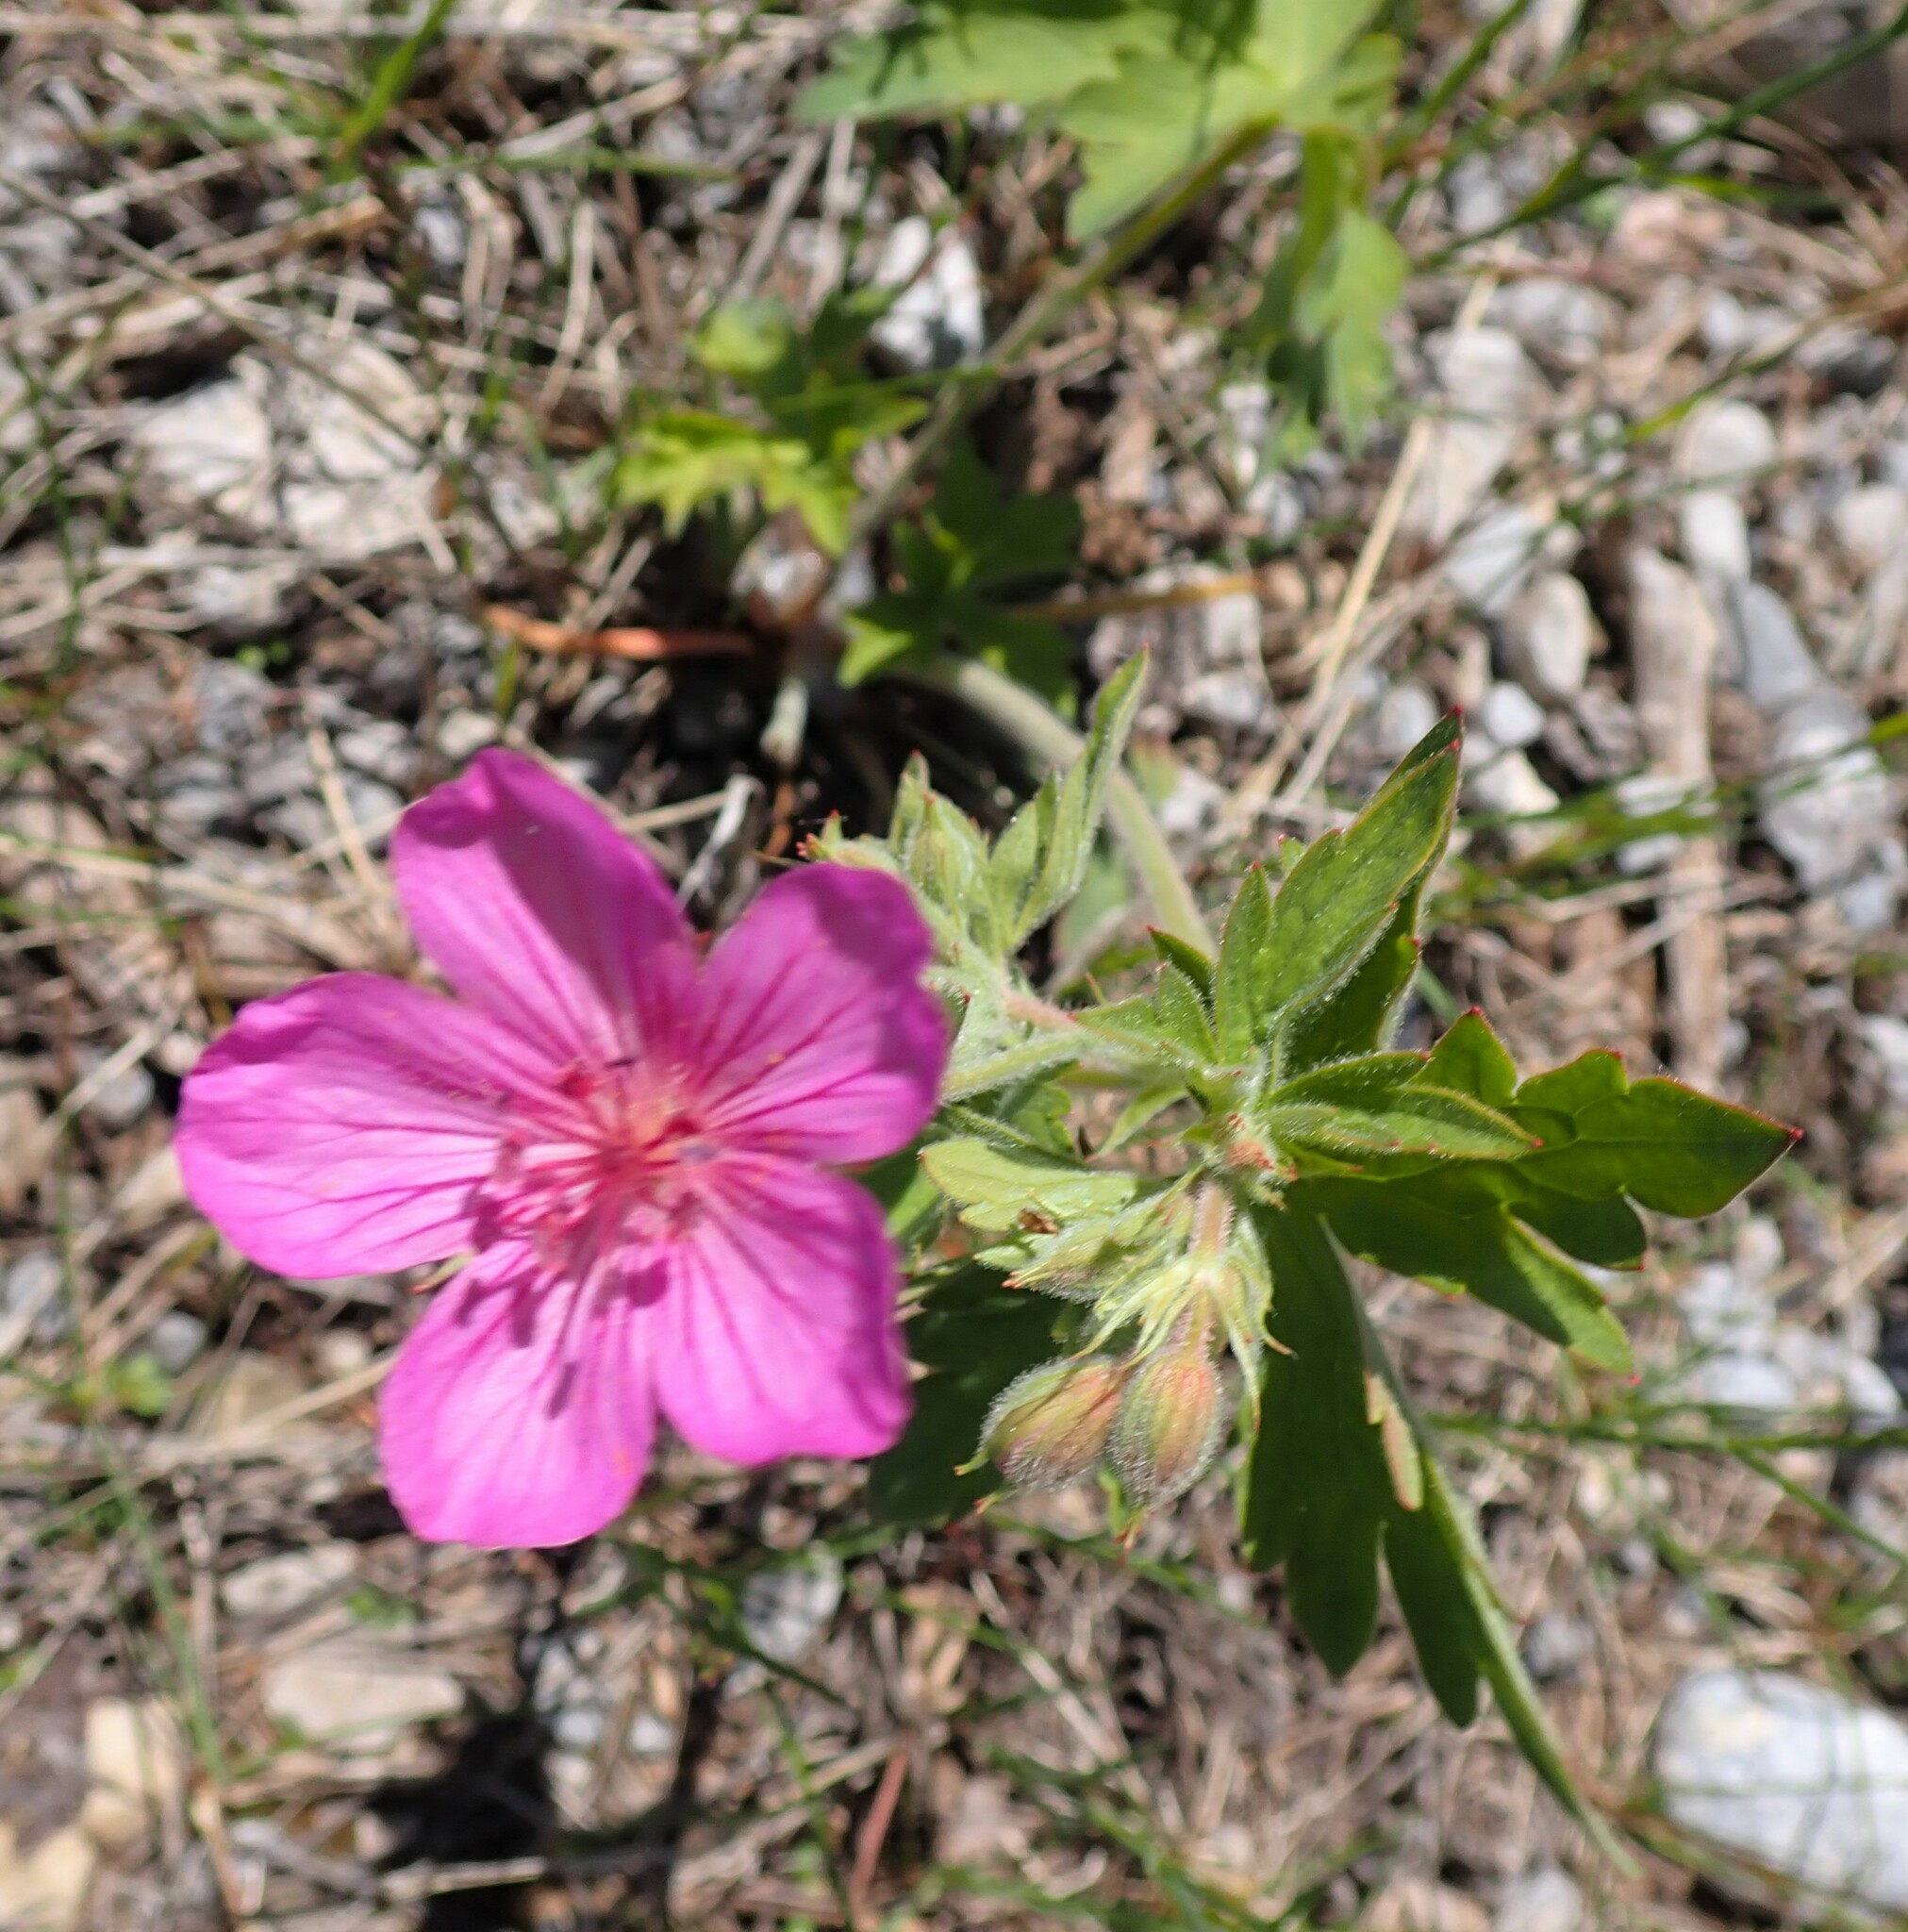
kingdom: Plantae
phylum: Tracheophyta
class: Magnoliopsida
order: Geraniales
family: Geraniaceae
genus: Geranium
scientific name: Geranium viscosissimum
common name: Purple geranium
